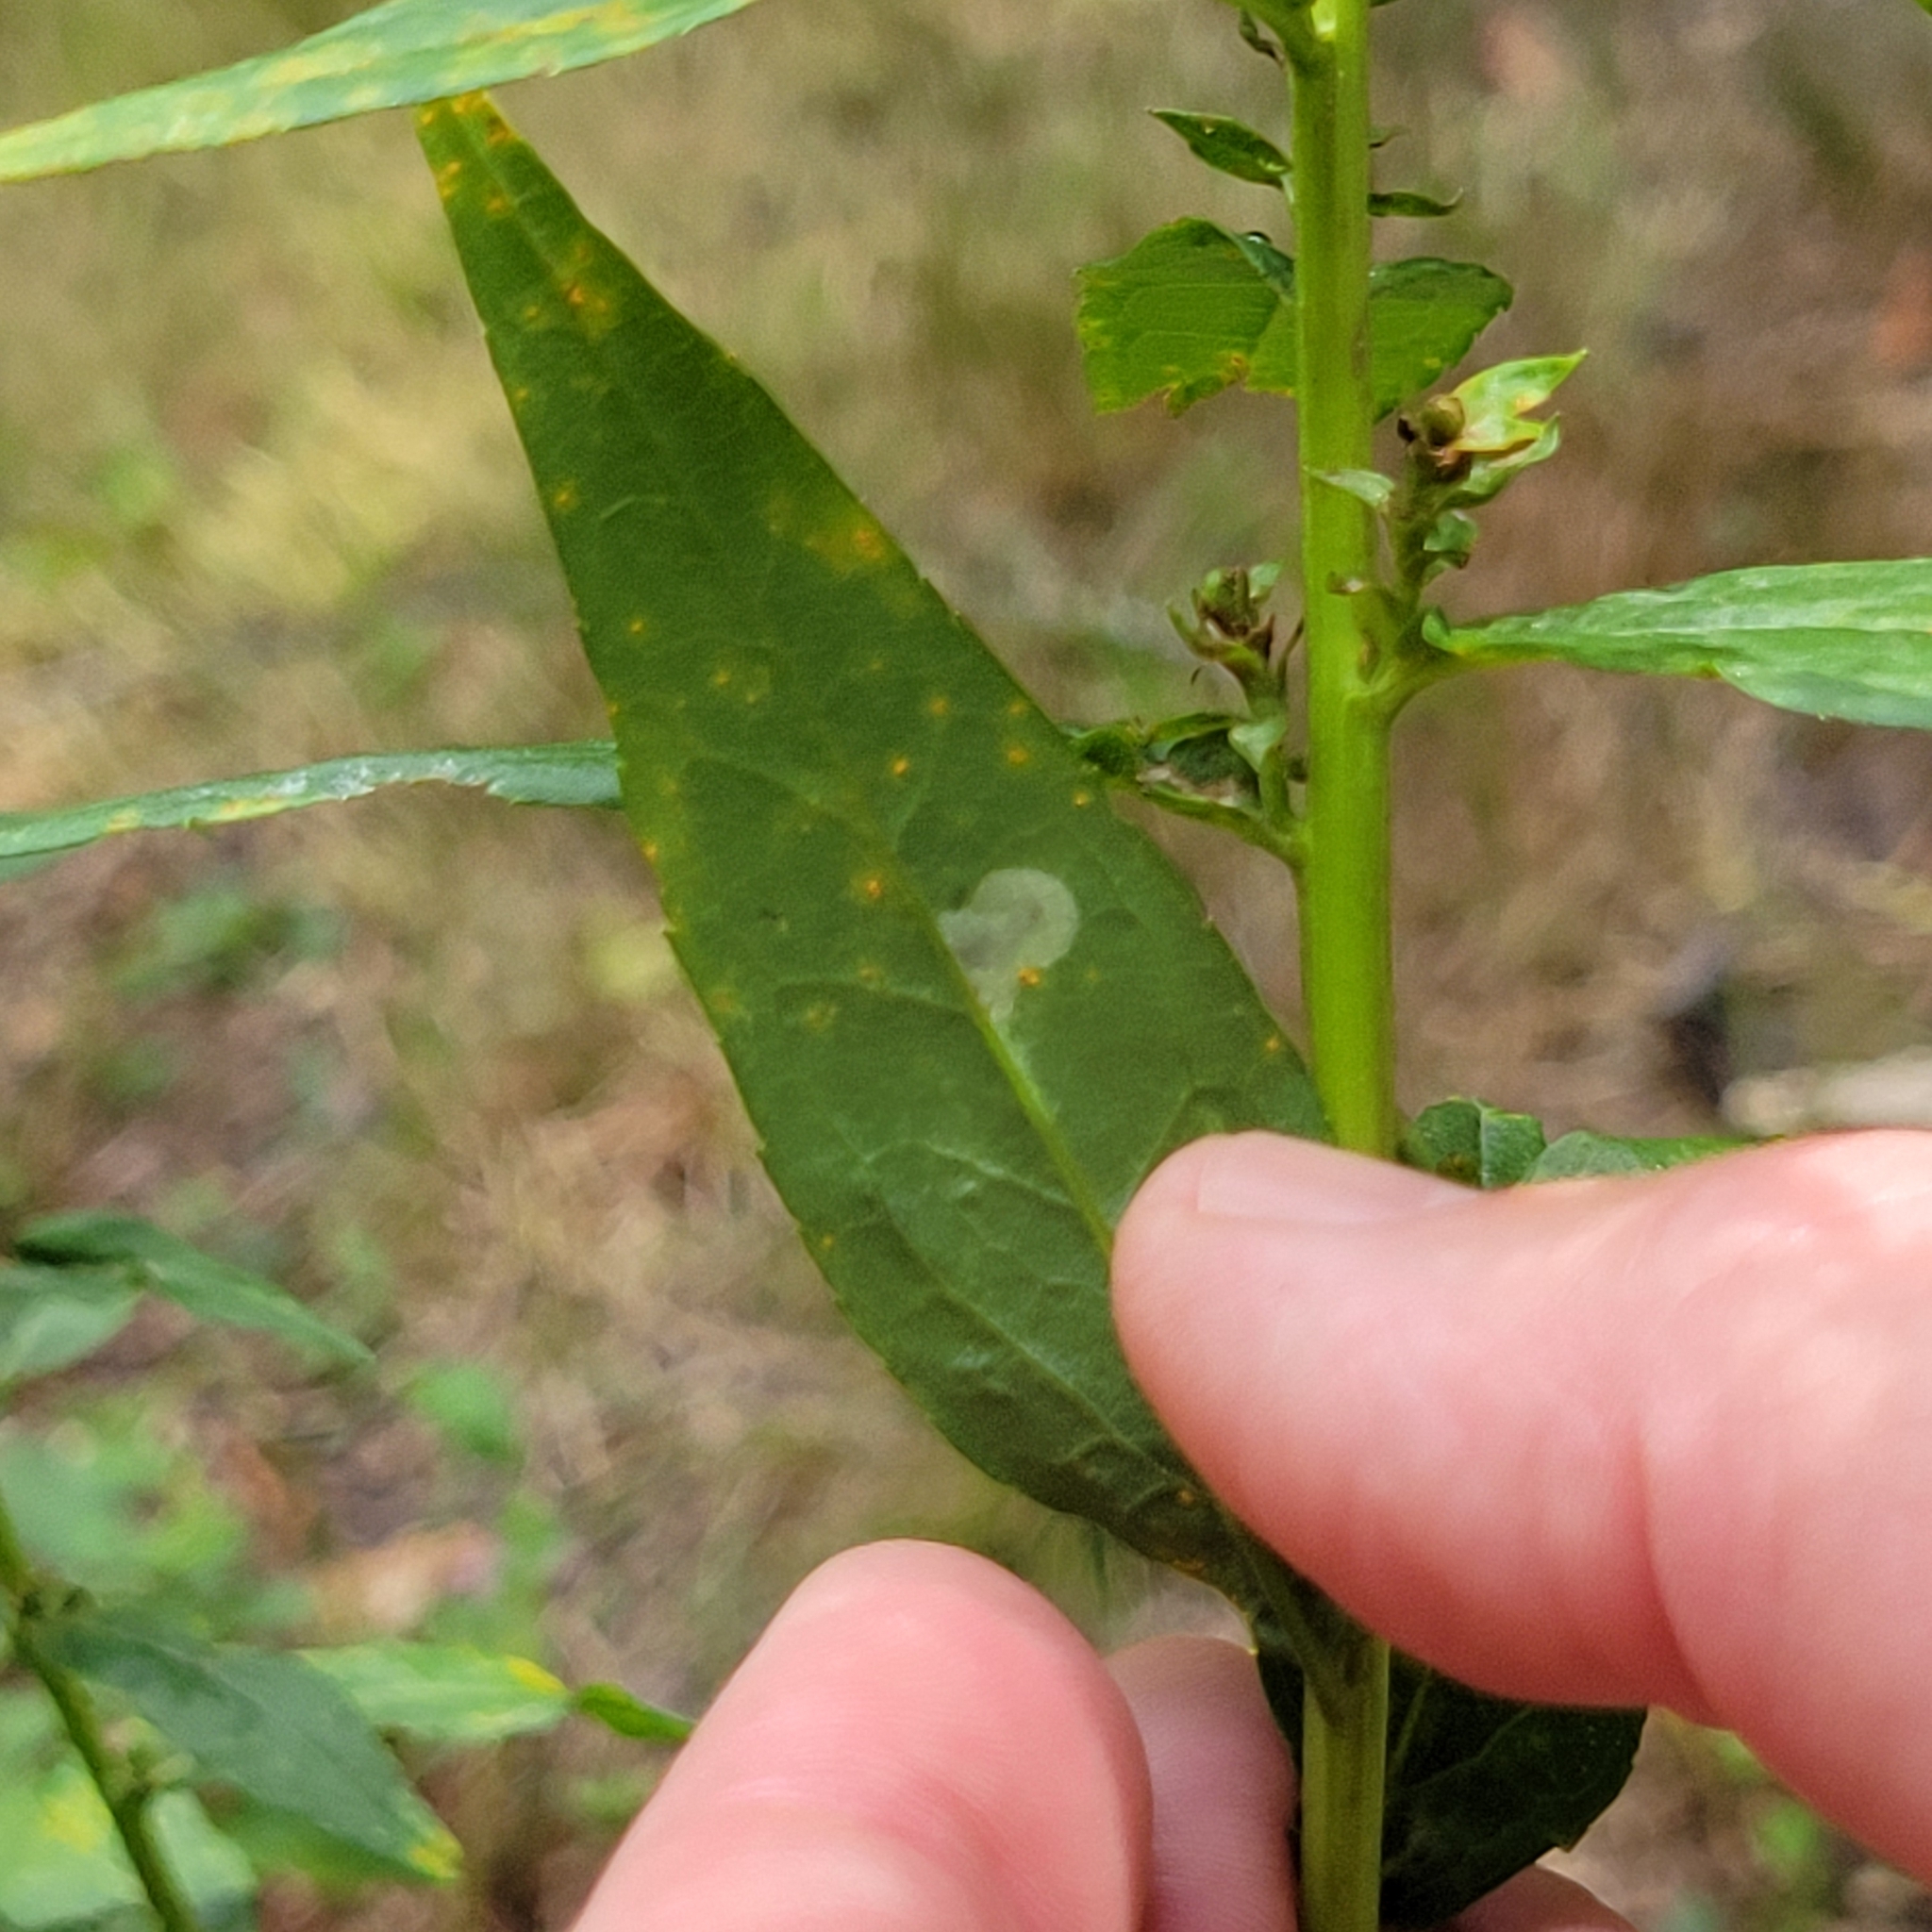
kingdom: Plantae
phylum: Tracheophyta
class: Magnoliopsida
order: Asterales
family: Asteraceae
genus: Solidago
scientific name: Solidago latissimifolia
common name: Elliott's goldenrod
